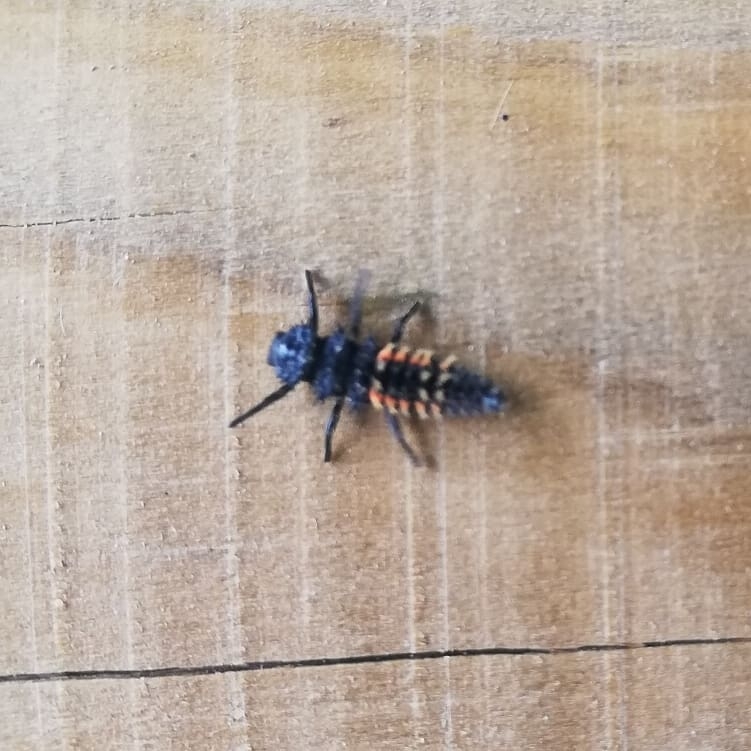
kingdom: Animalia
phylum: Arthropoda
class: Insecta
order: Coleoptera
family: Coccinellidae
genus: Harmonia
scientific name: Harmonia axyridis
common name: Harlequin ladybird
